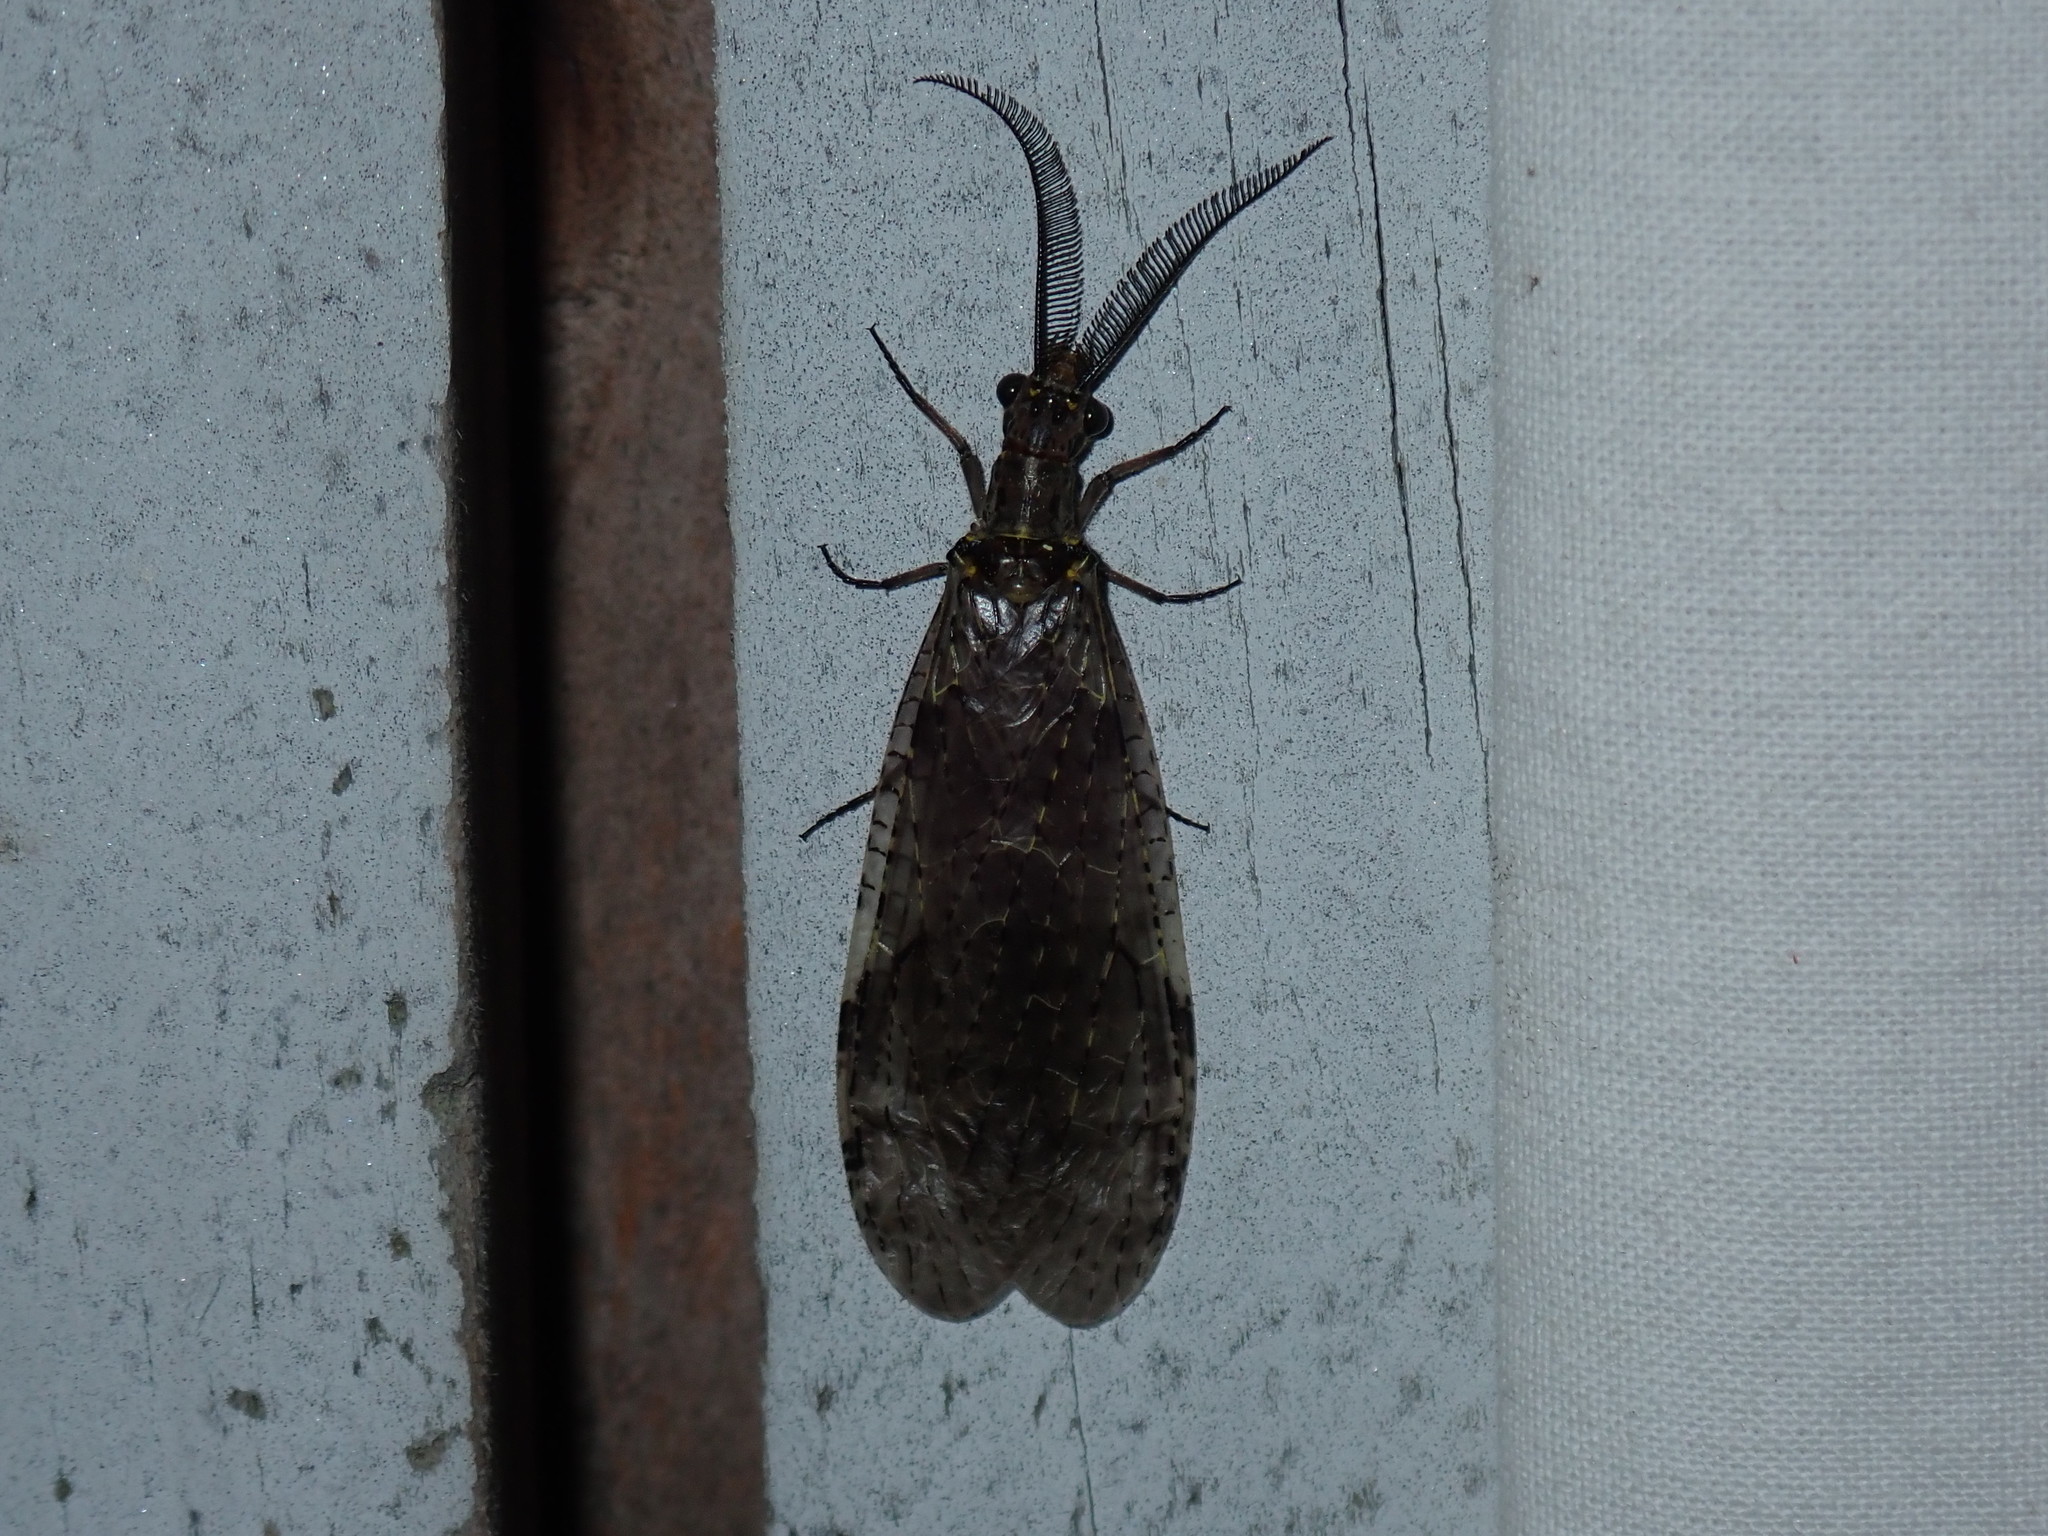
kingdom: Animalia
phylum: Arthropoda
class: Insecta
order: Megaloptera
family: Corydalidae
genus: Chauliodes
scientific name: Chauliodes rastricornis
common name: Spring fishfly
